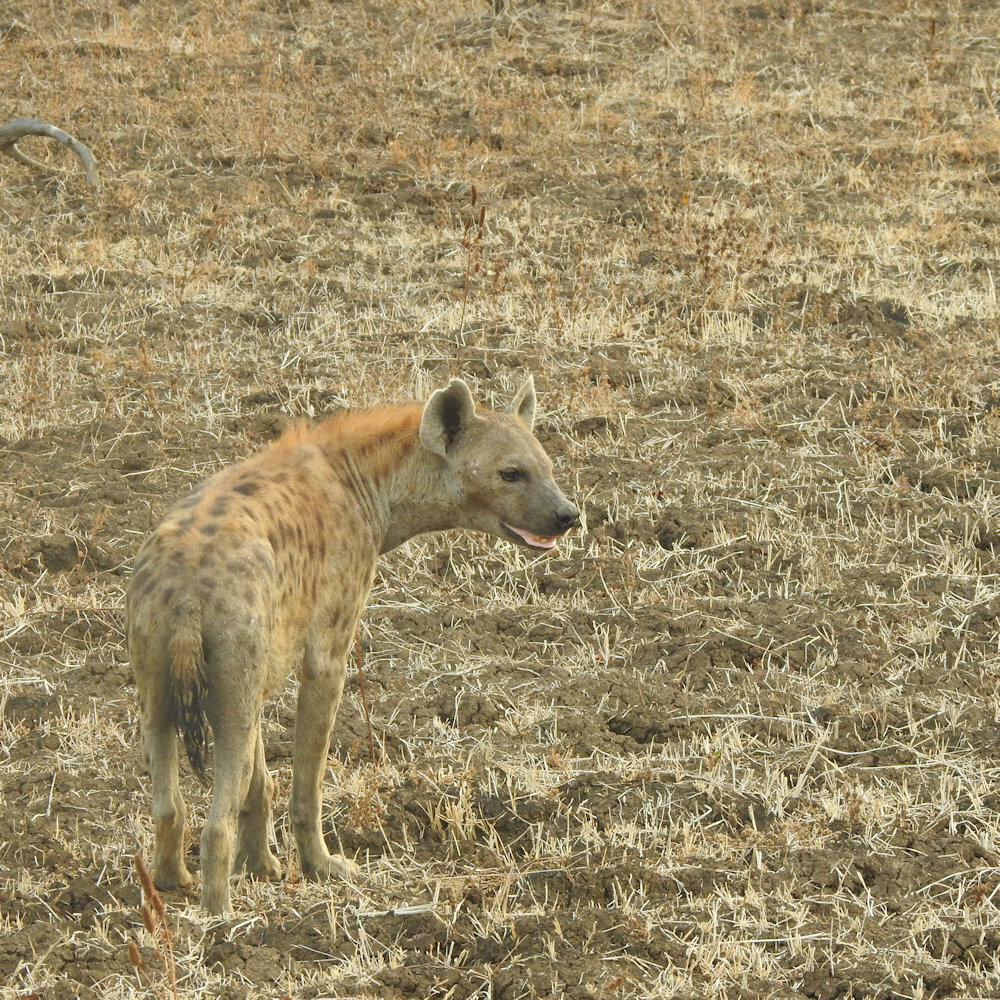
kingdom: Animalia
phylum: Chordata
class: Mammalia
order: Carnivora
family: Hyaenidae
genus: Crocuta
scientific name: Crocuta crocuta
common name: Spotted hyaena
